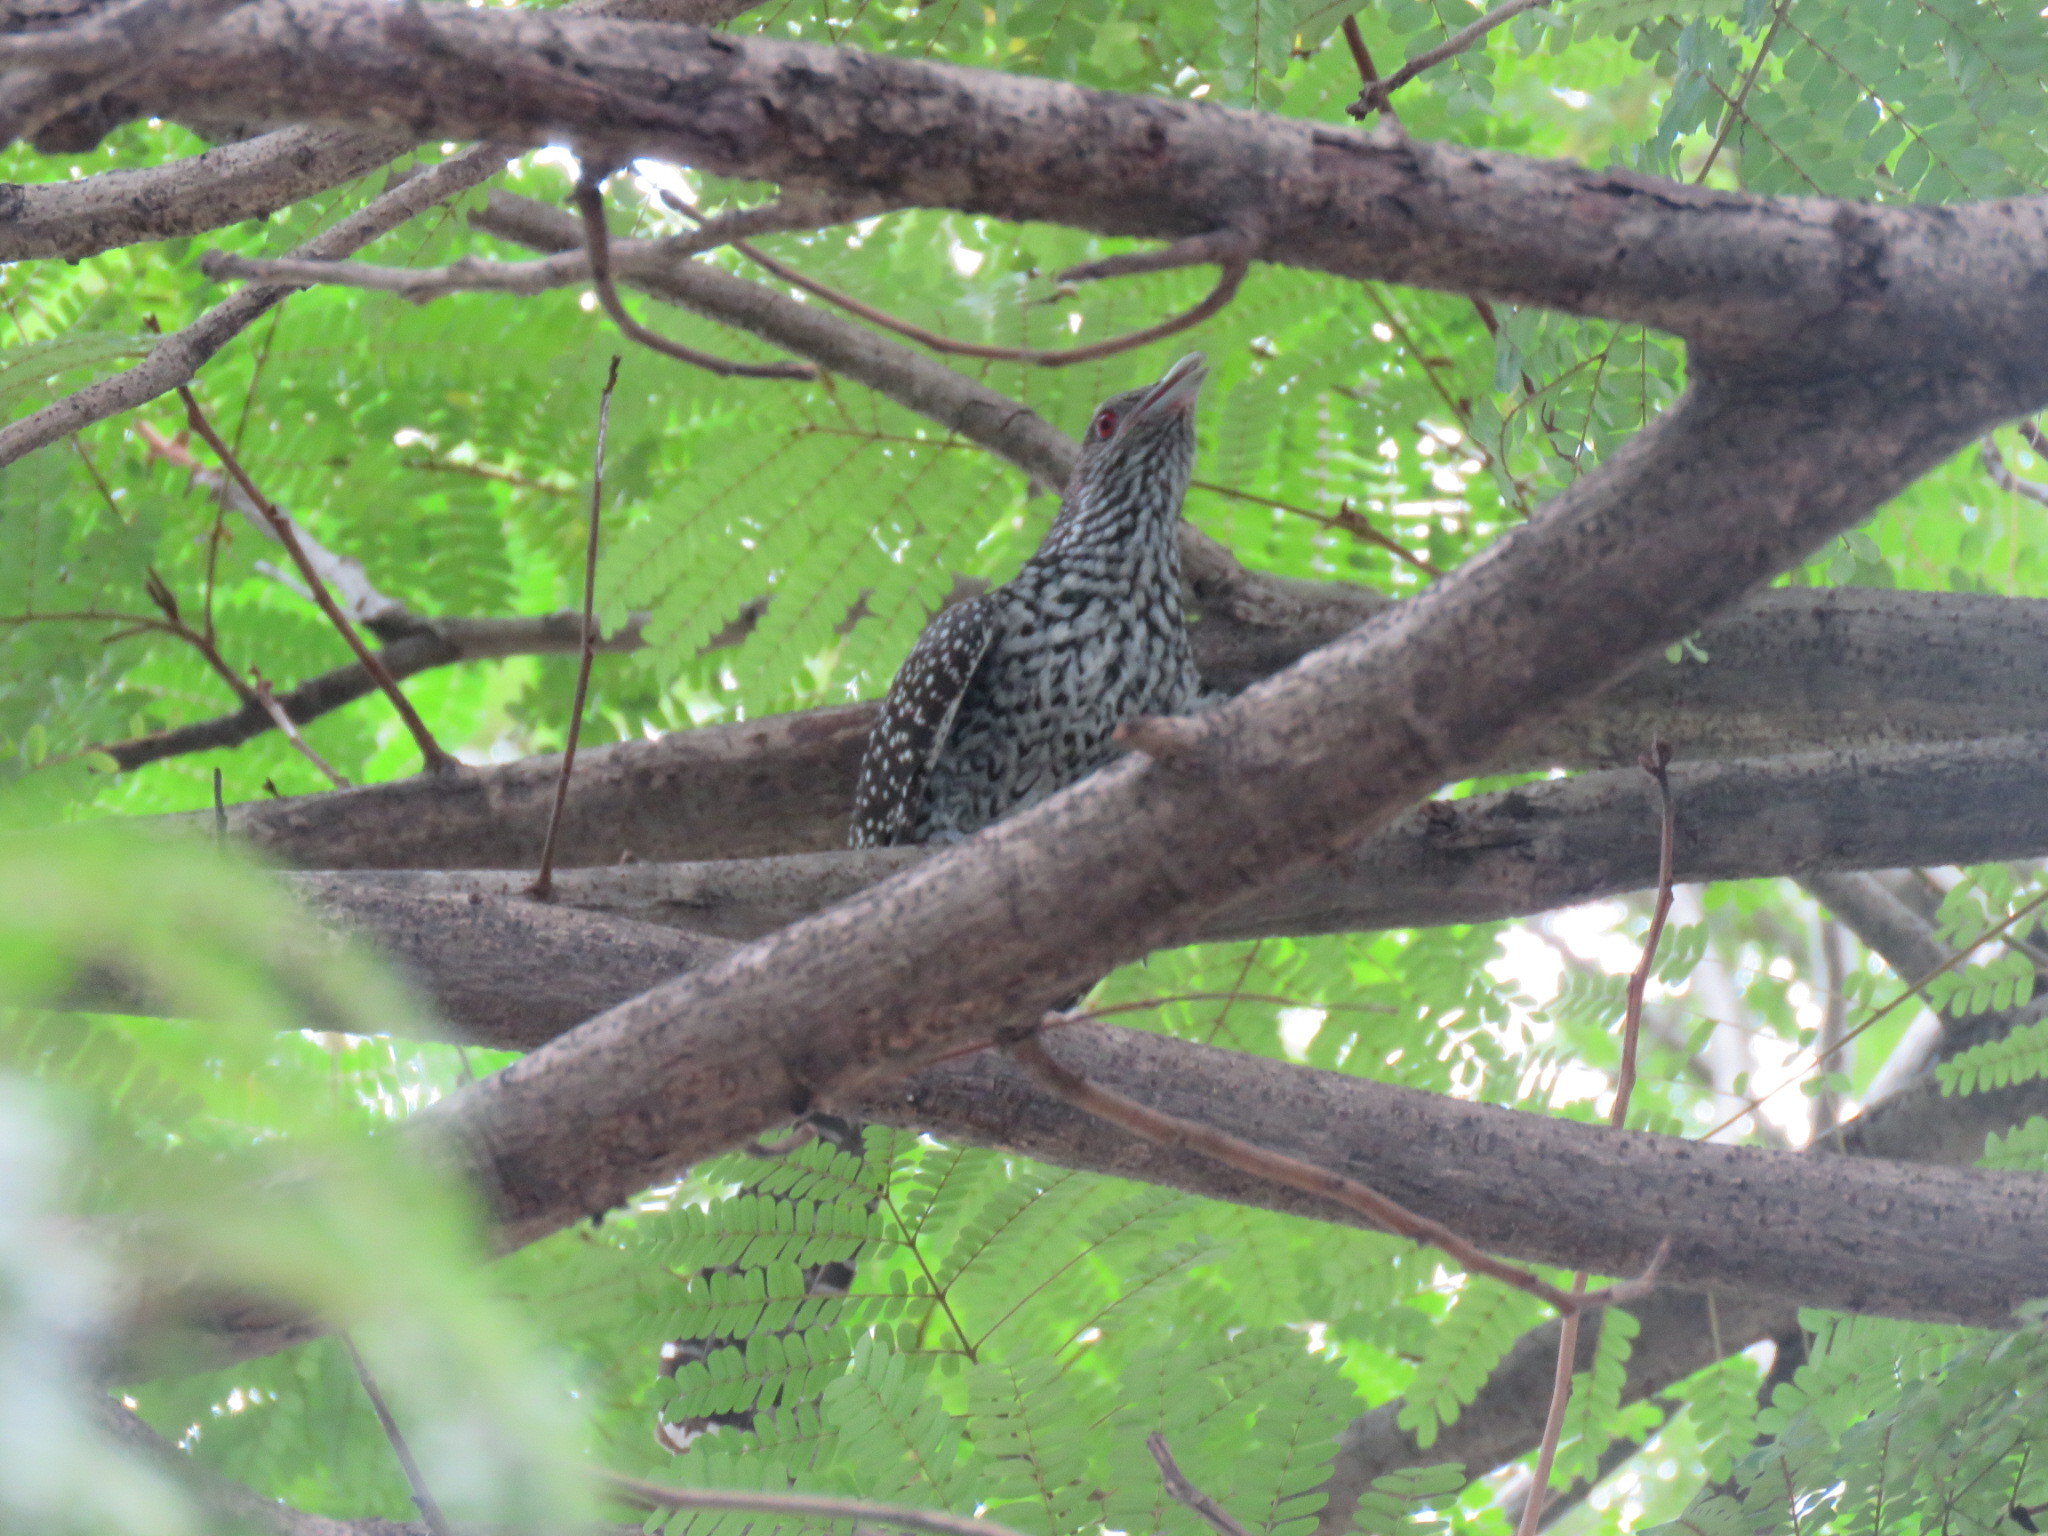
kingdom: Animalia
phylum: Chordata
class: Aves
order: Cuculiformes
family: Cuculidae
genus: Eudynamys
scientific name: Eudynamys scolopaceus
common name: Asian koel
